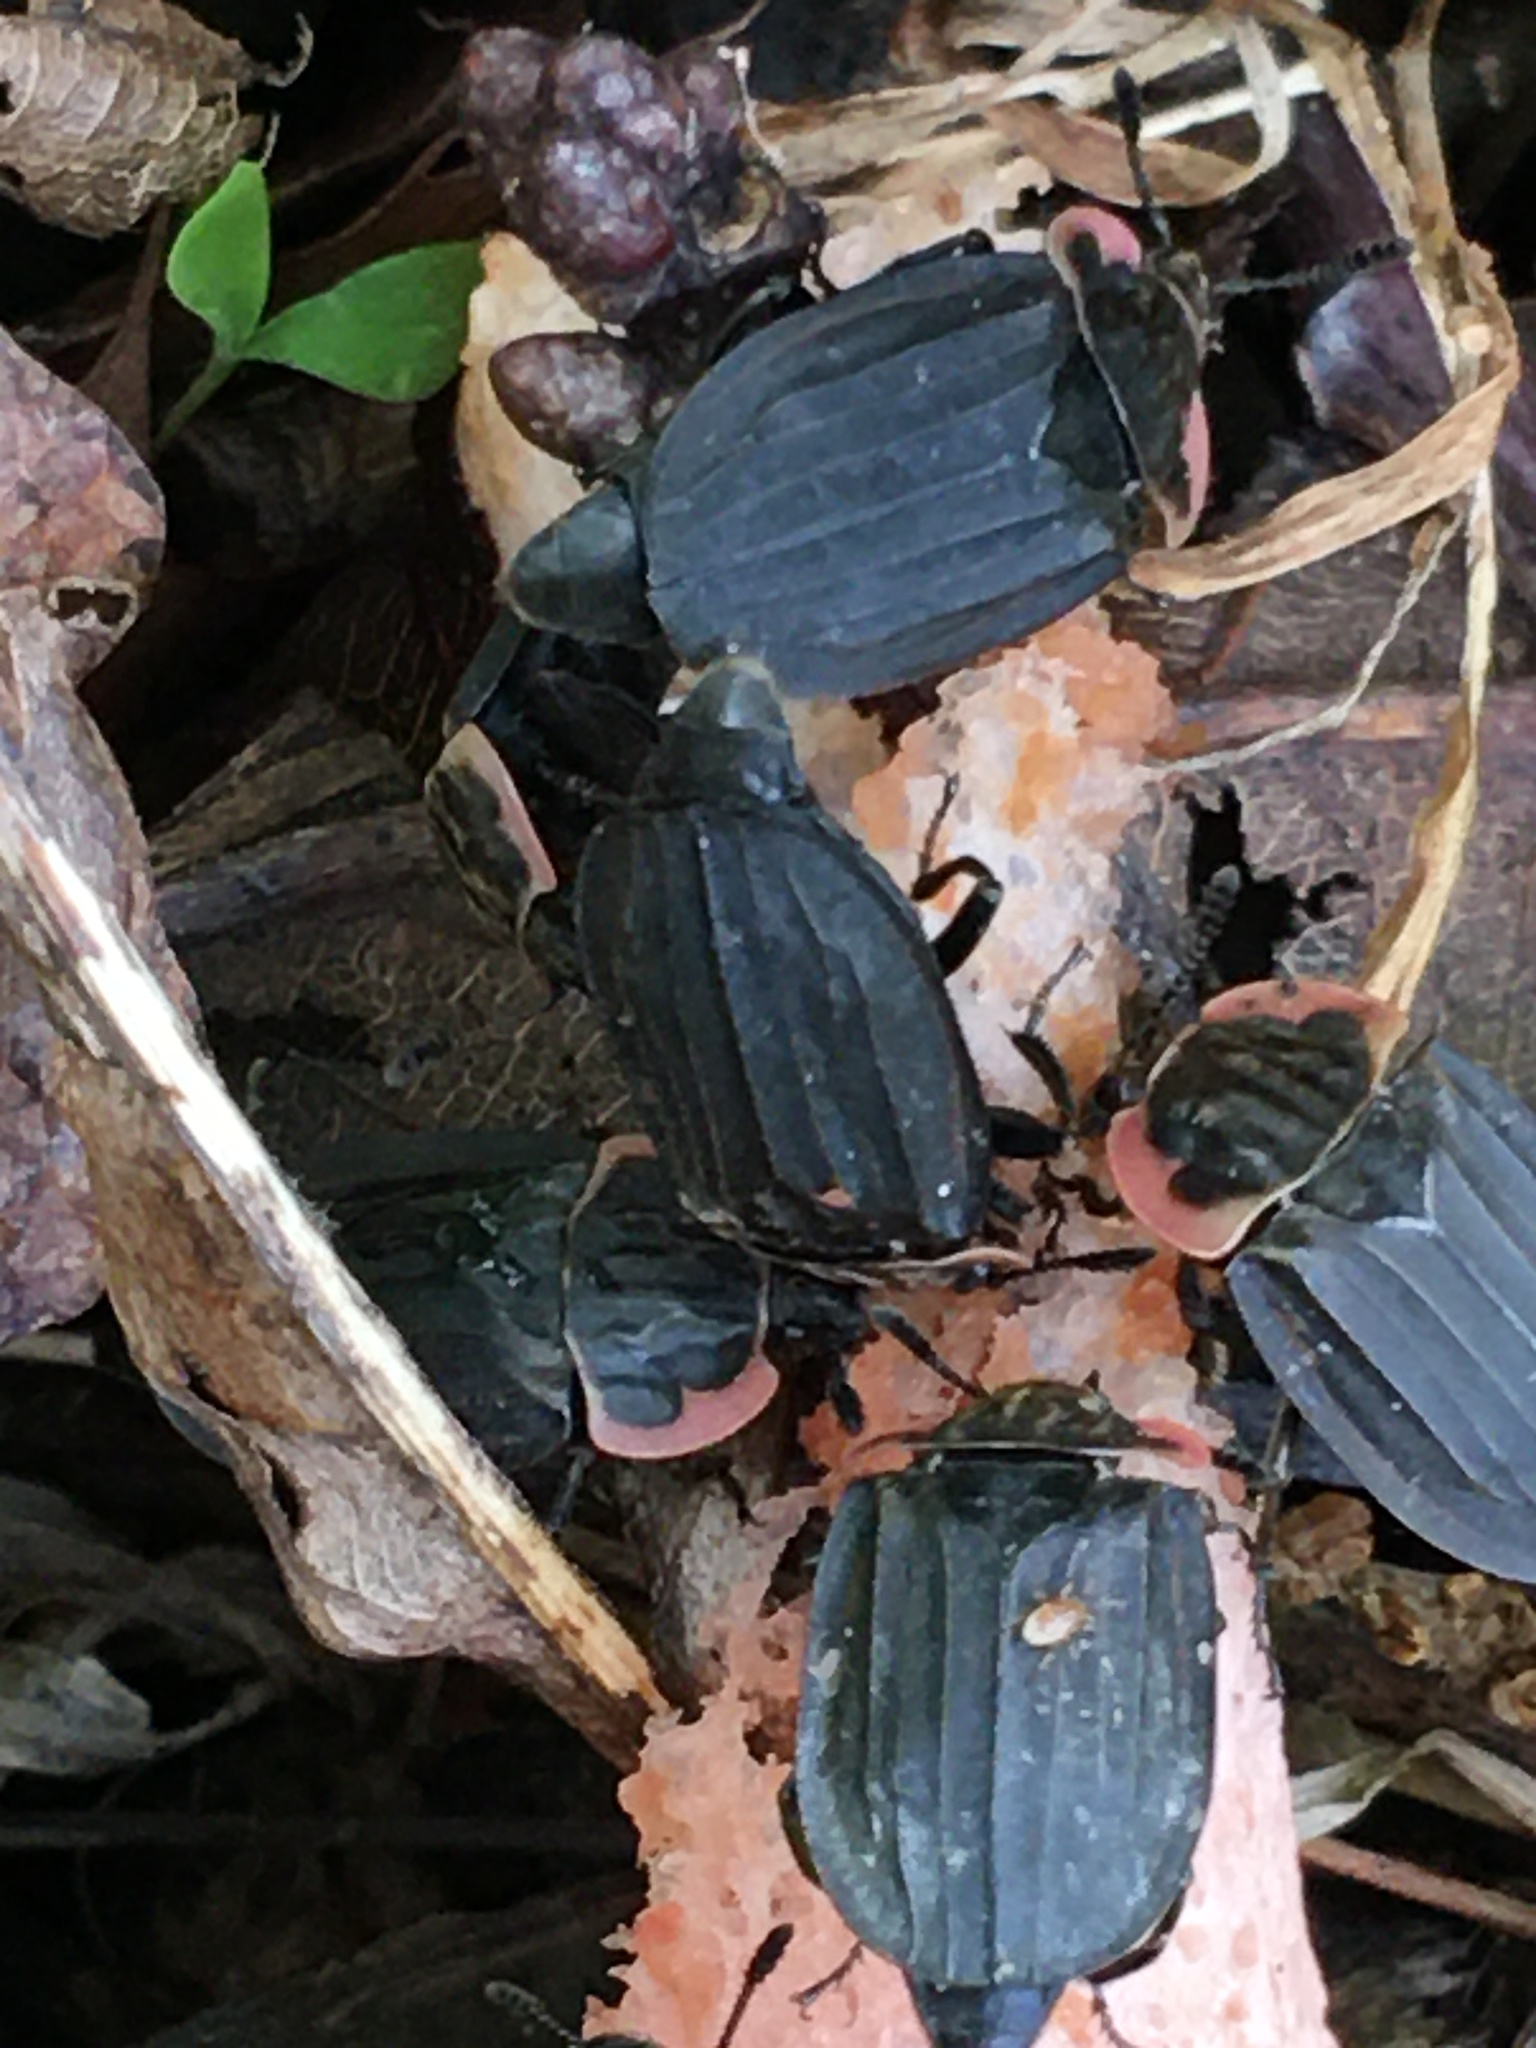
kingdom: Animalia
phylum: Arthropoda
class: Insecta
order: Coleoptera
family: Staphylinidae
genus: Oiceoptoma
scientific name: Oiceoptoma noveboracense
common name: Margined carrion beetle
